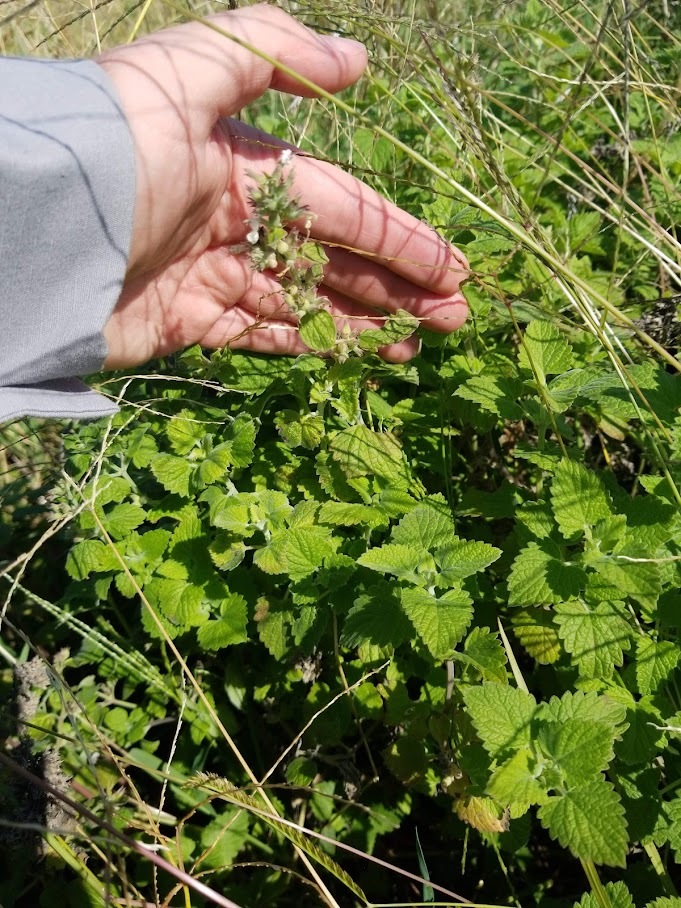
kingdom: Plantae
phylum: Tracheophyta
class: Magnoliopsida
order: Lamiales
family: Lamiaceae
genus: Nepeta
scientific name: Nepeta cataria
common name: Catnip
